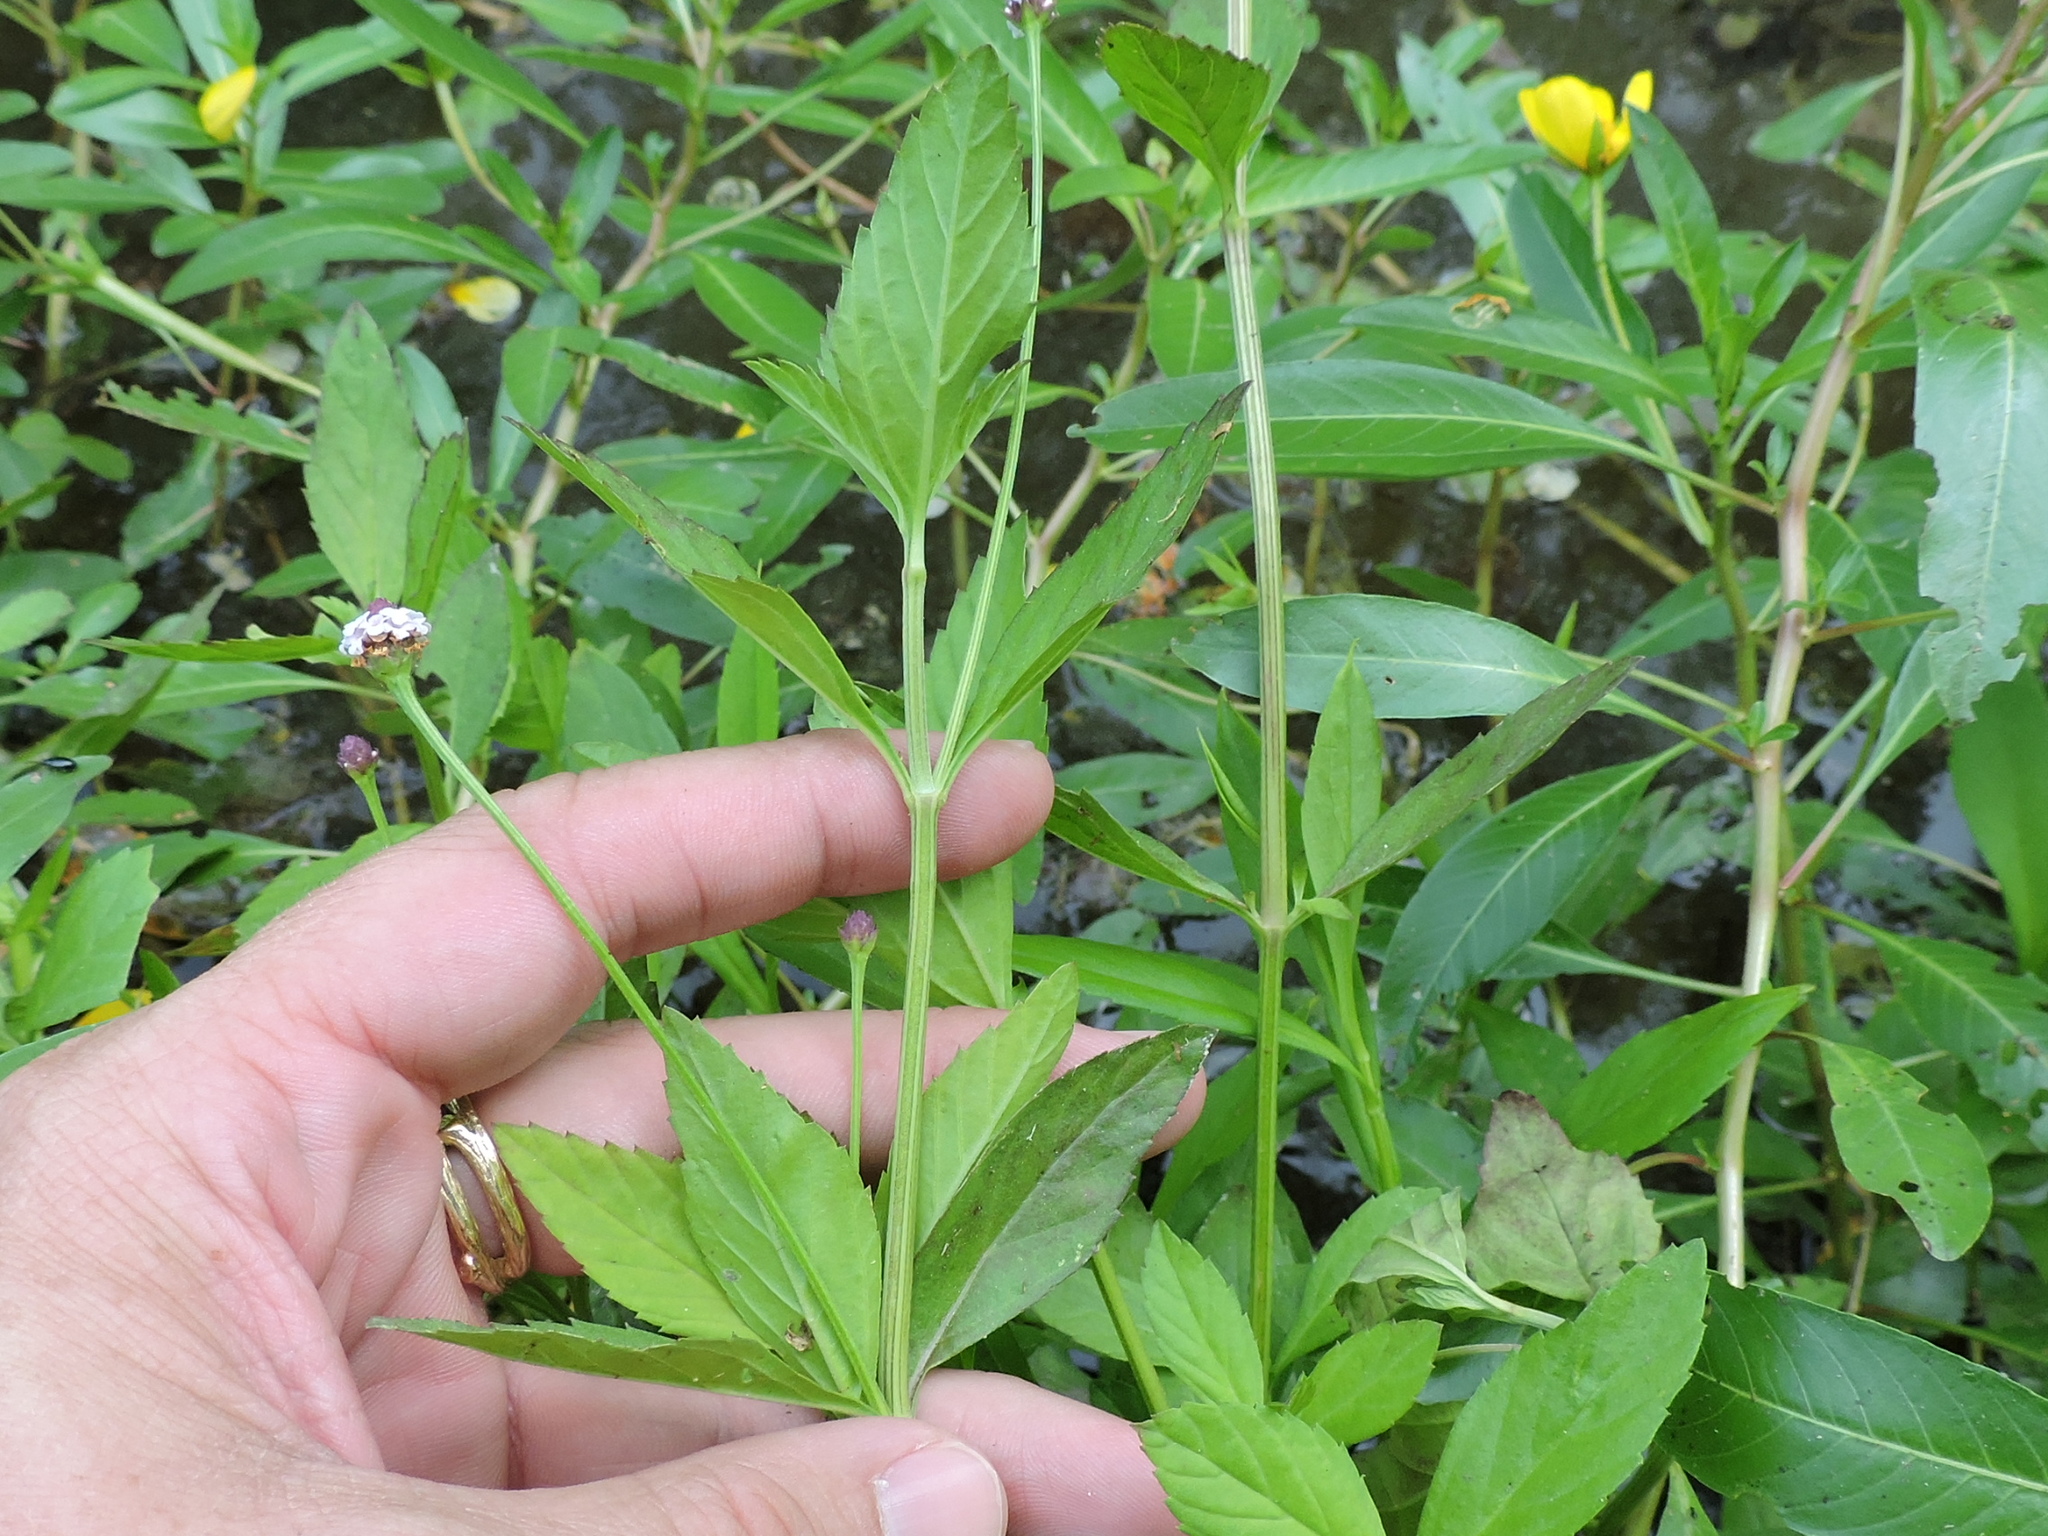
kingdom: Plantae
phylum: Tracheophyta
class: Magnoliopsida
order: Lamiales
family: Verbenaceae
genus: Phyla
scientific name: Phyla lanceolata
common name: Northern fogfruit
